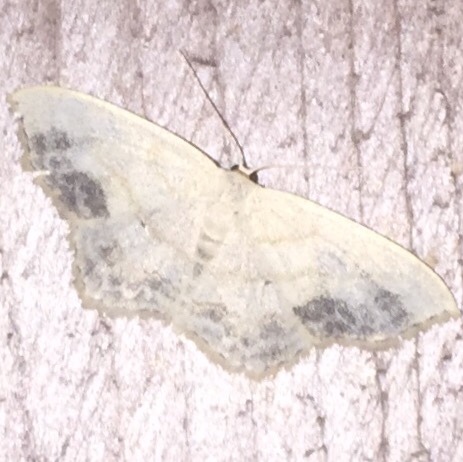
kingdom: Animalia
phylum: Arthropoda
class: Insecta
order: Lepidoptera
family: Geometridae
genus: Scopula
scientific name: Scopula limboundata
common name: Large lace border
